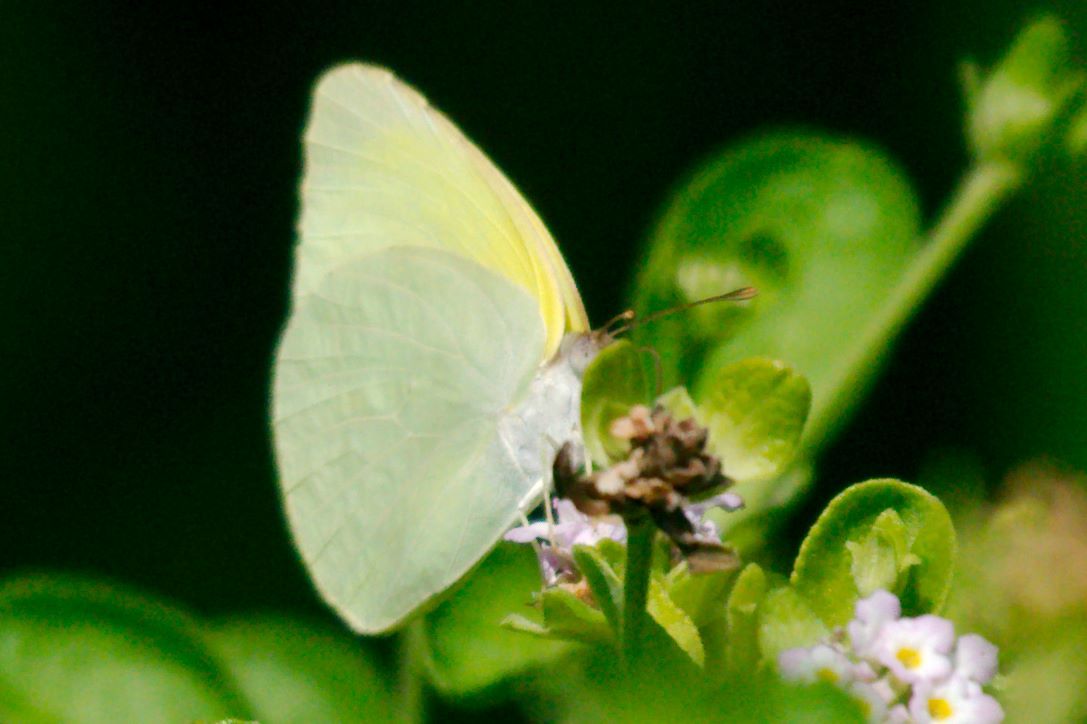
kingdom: Animalia
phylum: Arthropoda
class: Insecta
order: Lepidoptera
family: Pieridae
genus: Kricogonia
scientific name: Kricogonia lyside
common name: Guayacan sulphur,
